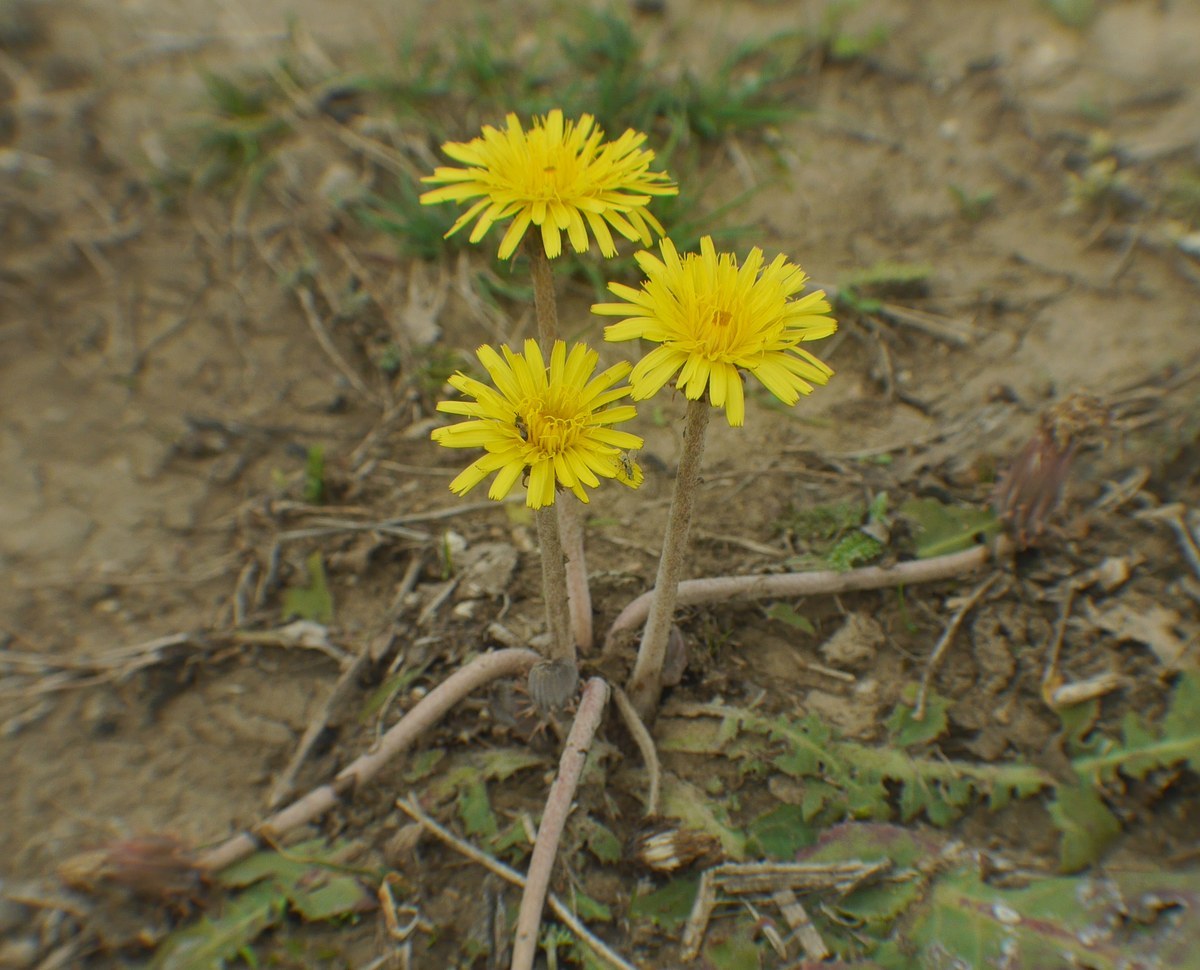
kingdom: Plantae
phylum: Tracheophyta
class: Magnoliopsida
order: Asterales
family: Asteraceae
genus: Taraxacum
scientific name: Taraxacum serotinum
